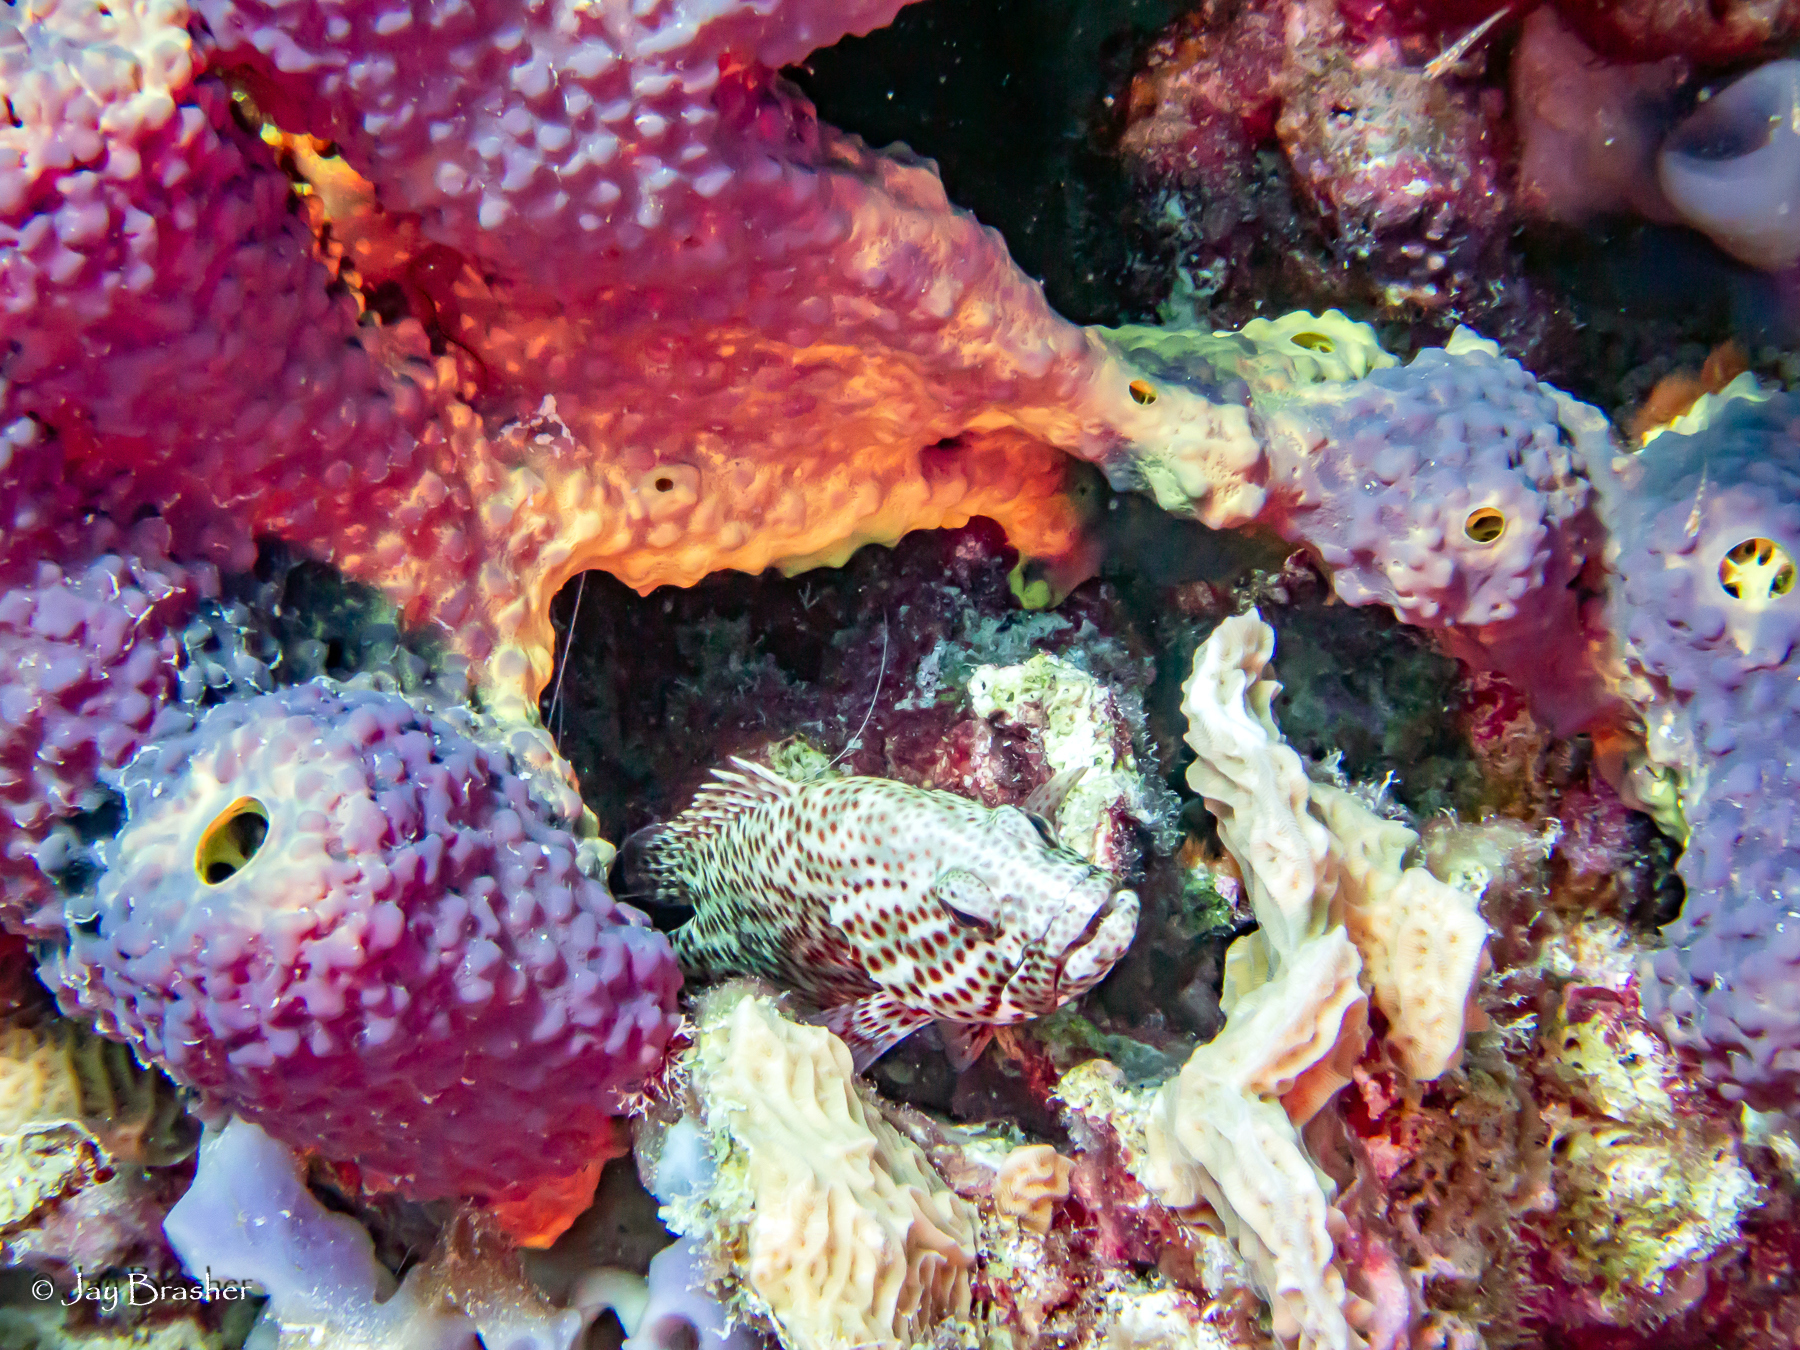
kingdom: Animalia
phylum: Chordata
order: Perciformes
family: Serranidae
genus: Cephalopholis
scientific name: Cephalopholis cruentata
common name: Graysby
